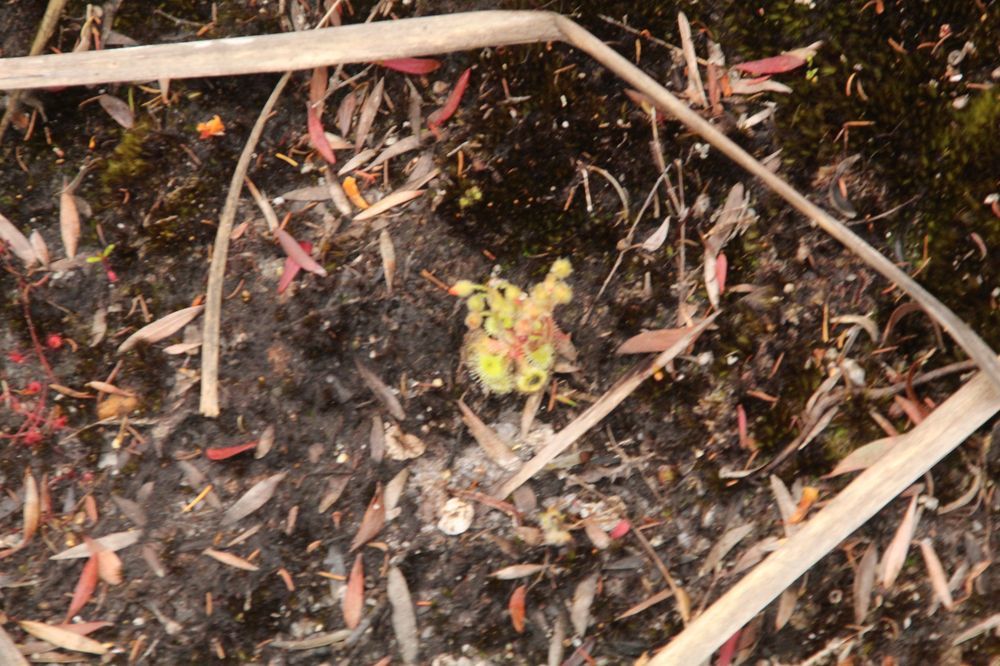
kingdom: Plantae
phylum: Tracheophyta
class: Magnoliopsida
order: Caryophyllales
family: Droseraceae
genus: Drosera
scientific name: Drosera glanduligera
